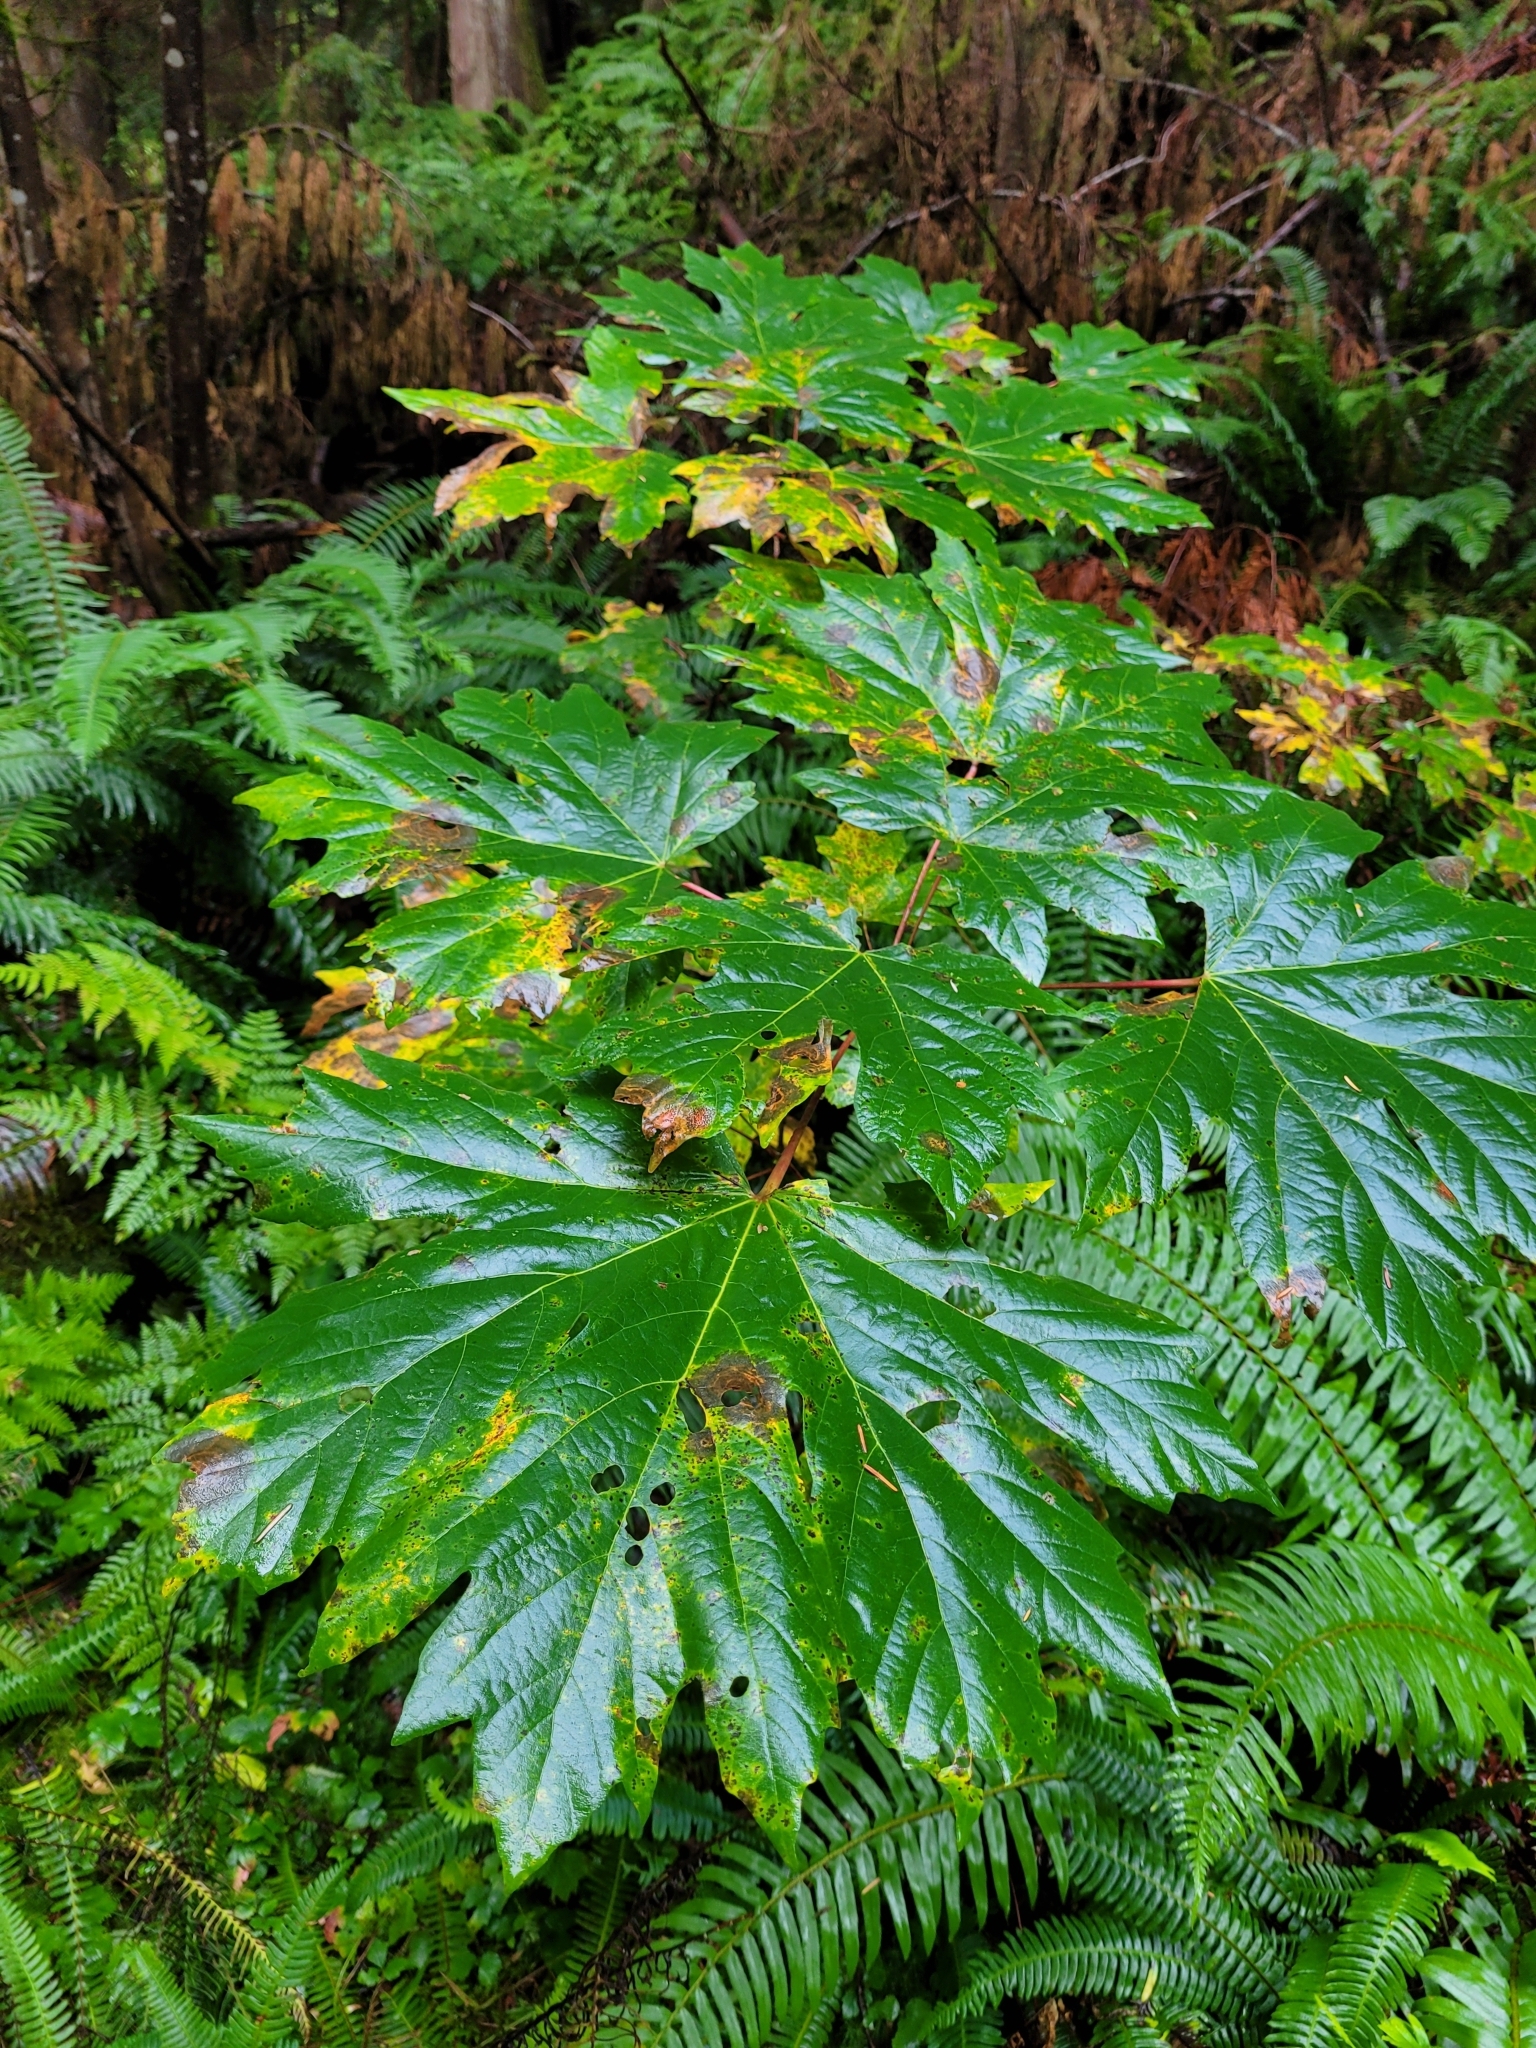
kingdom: Plantae
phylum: Tracheophyta
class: Magnoliopsida
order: Sapindales
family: Sapindaceae
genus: Acer
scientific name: Acer macrophyllum
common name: Oregon maple
